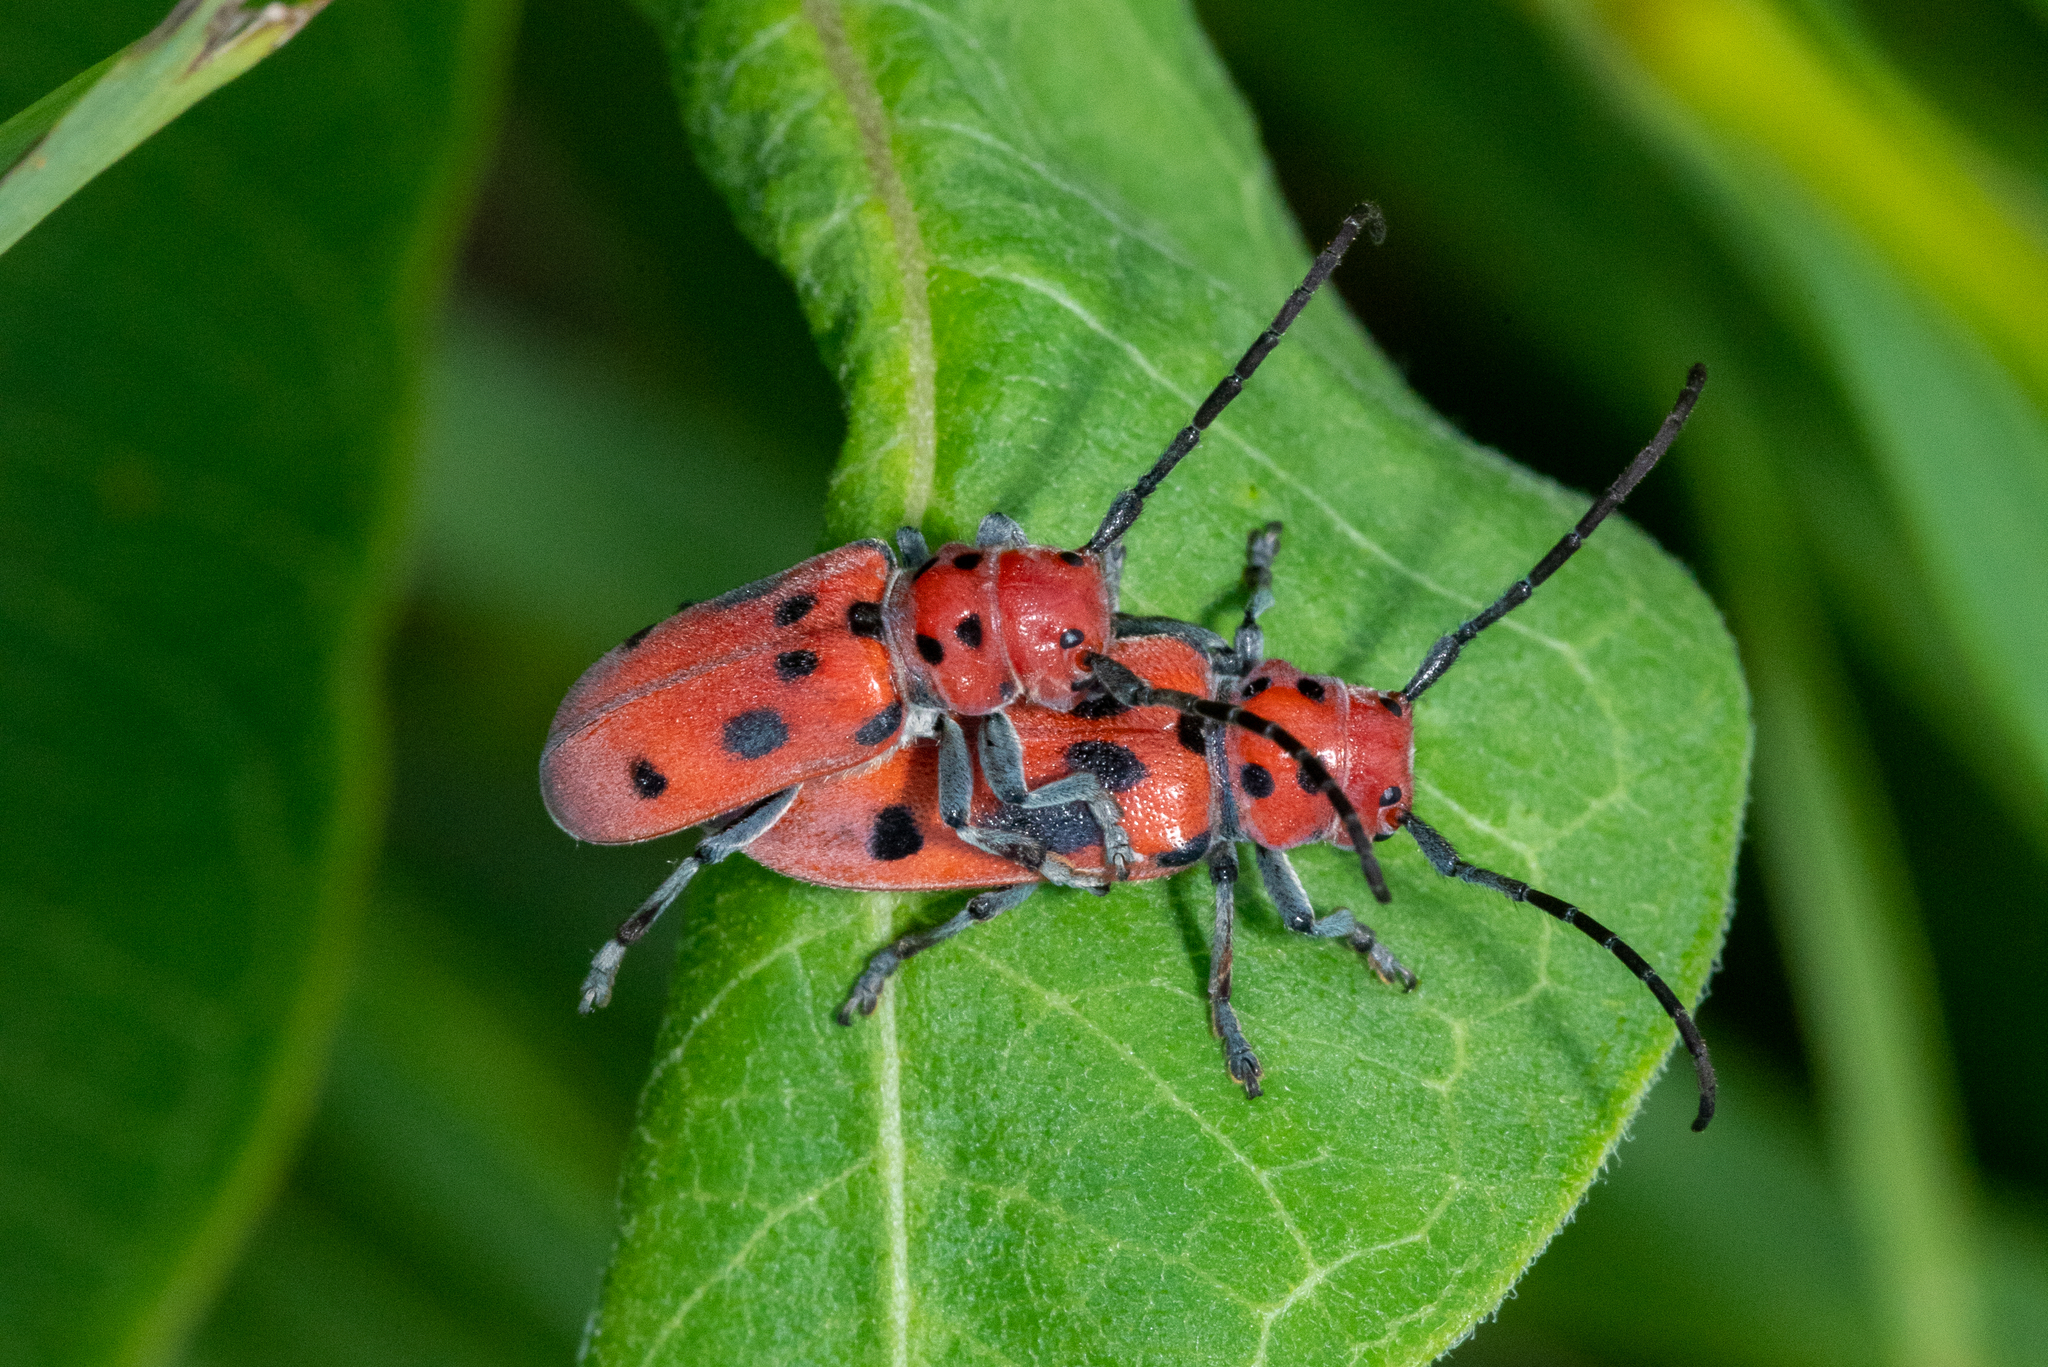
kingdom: Animalia
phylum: Arthropoda
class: Insecta
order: Coleoptera
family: Cerambycidae
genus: Tetraopes
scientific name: Tetraopes tetrophthalmus
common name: Red milkweed beetle
